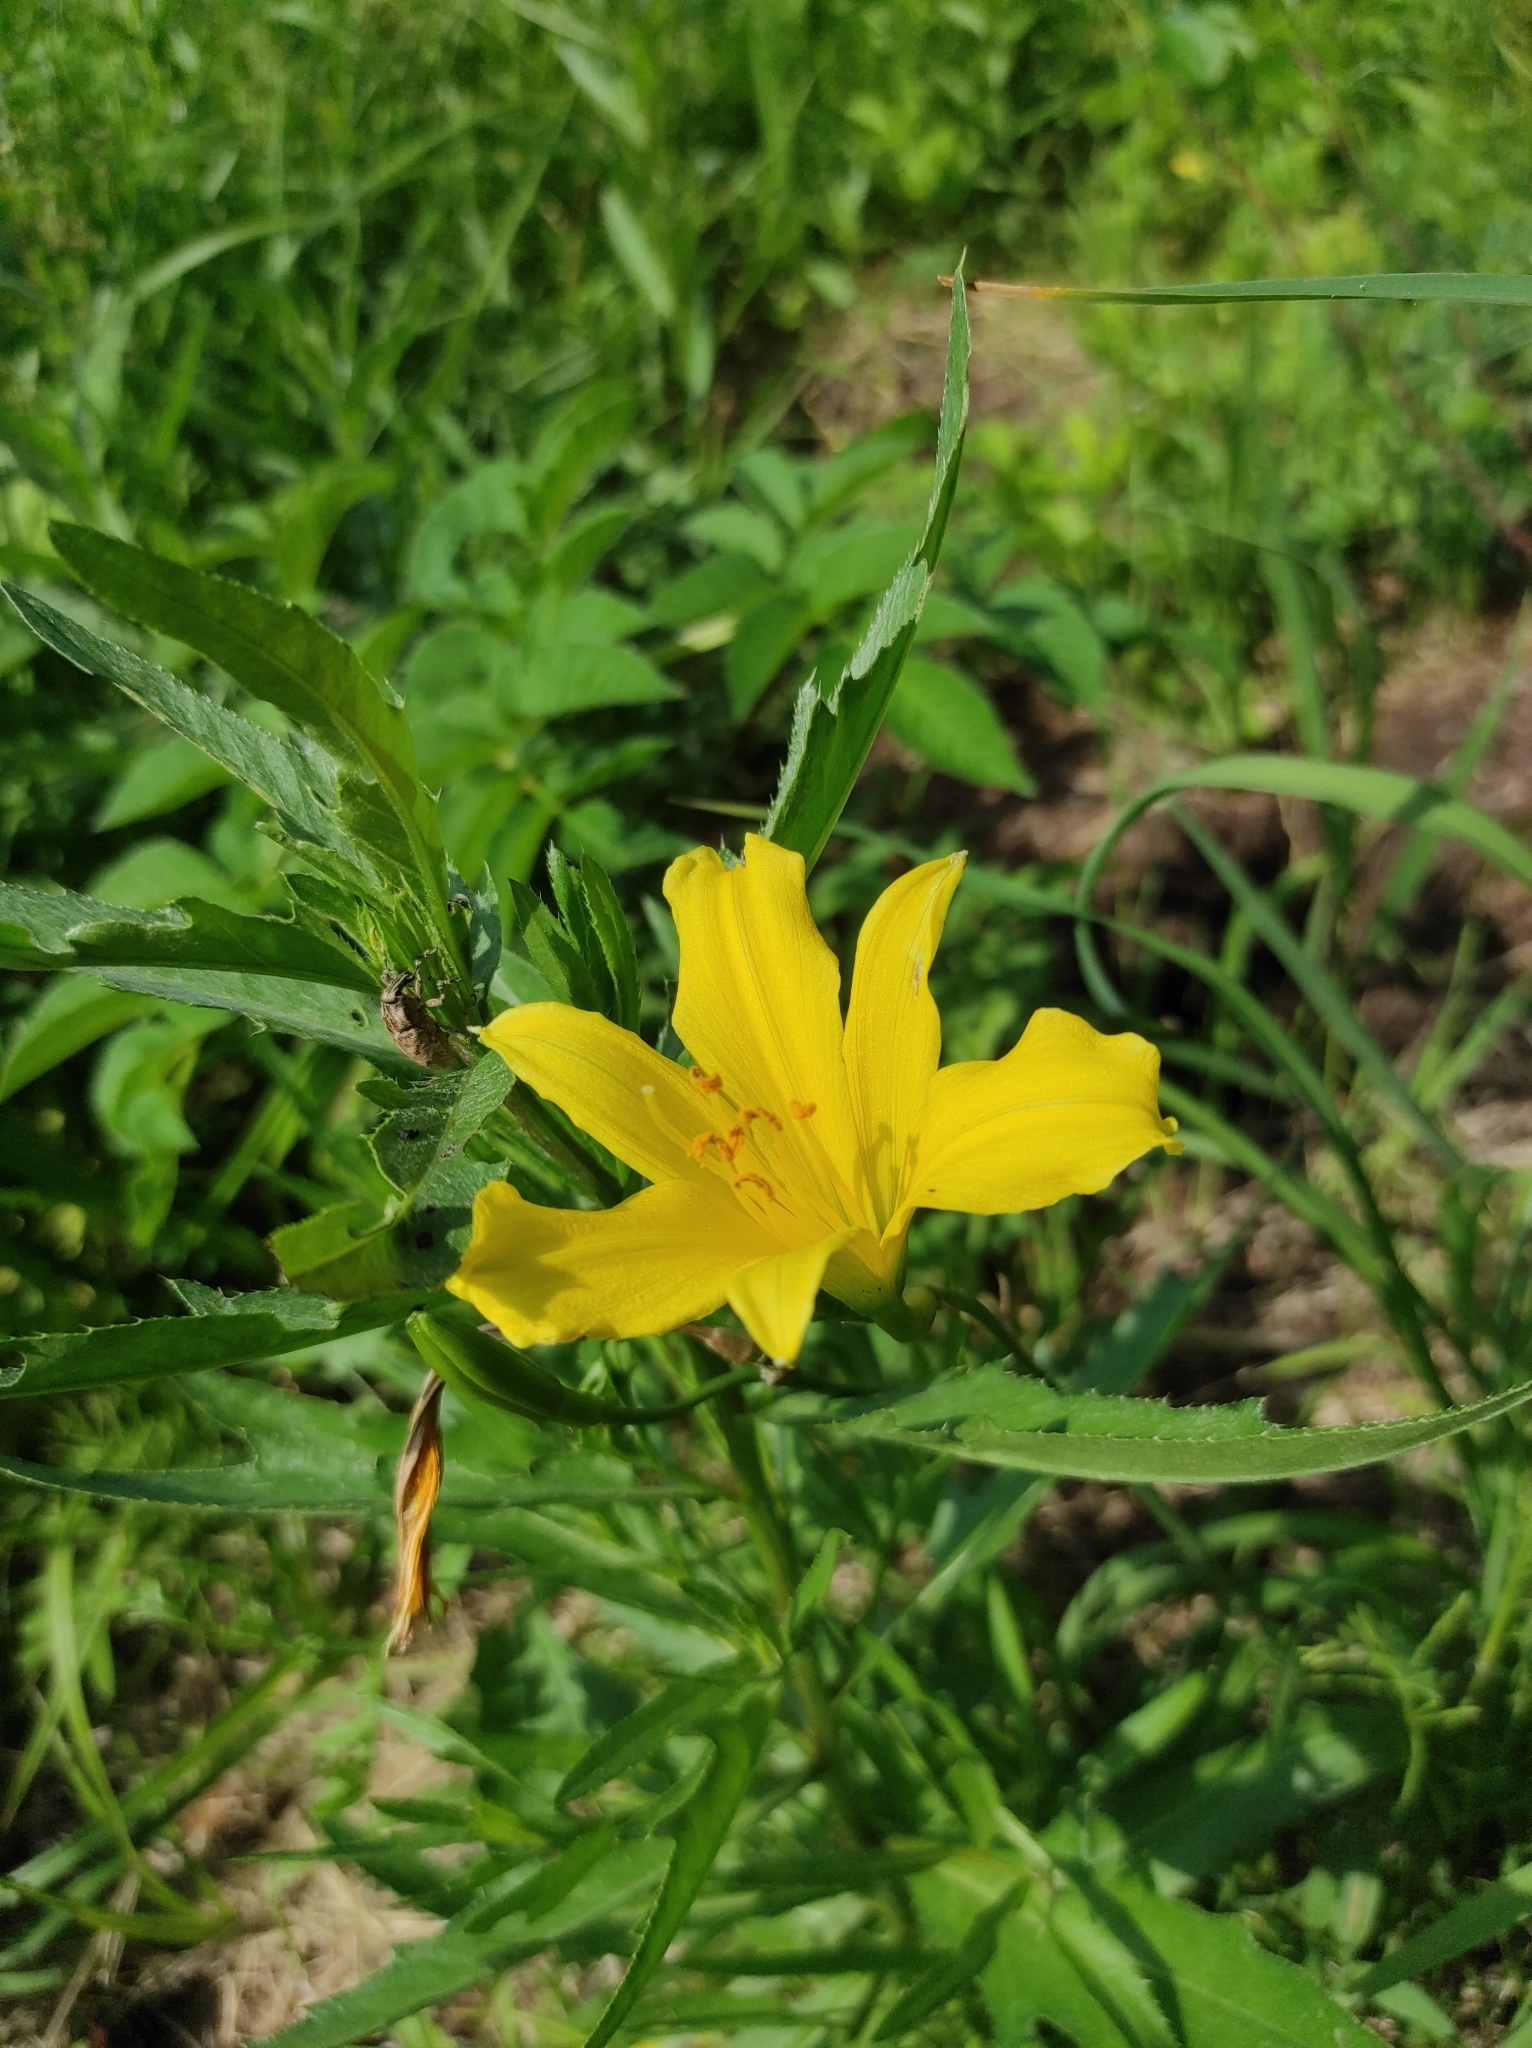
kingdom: Plantae
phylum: Tracheophyta
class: Liliopsida
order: Asparagales
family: Asphodelaceae
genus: Hemerocallis
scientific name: Hemerocallis minor
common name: Small daylily
